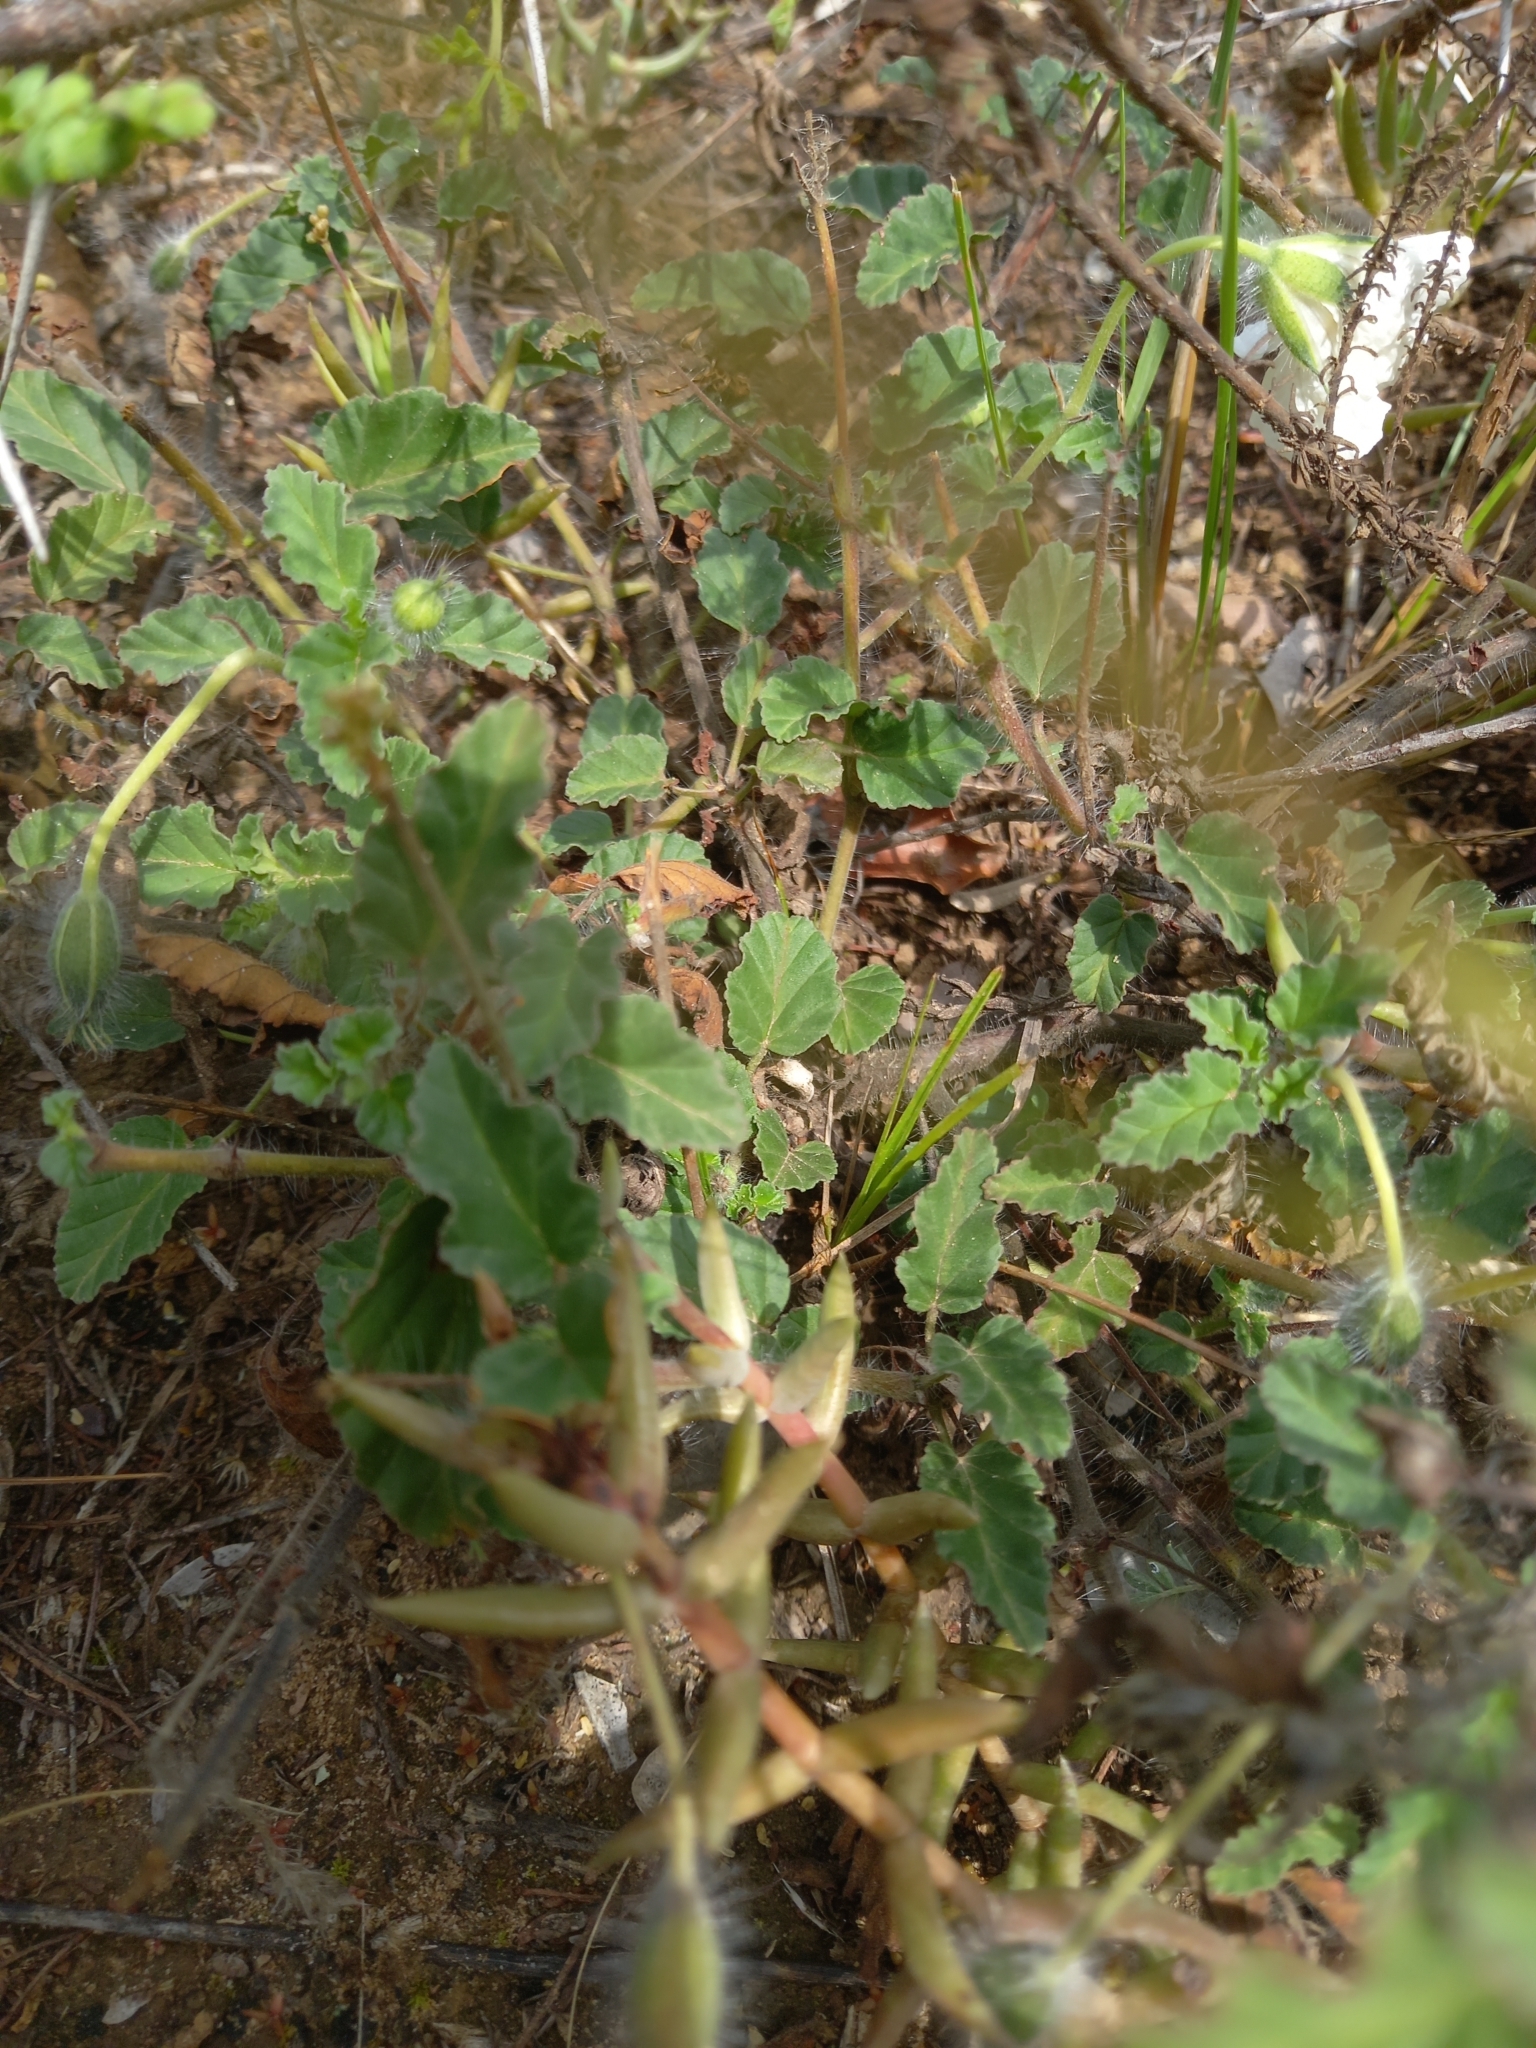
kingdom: Plantae
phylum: Tracheophyta
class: Magnoliopsida
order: Geraniales
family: Geraniaceae
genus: Monsonia
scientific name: Monsonia emarginata
